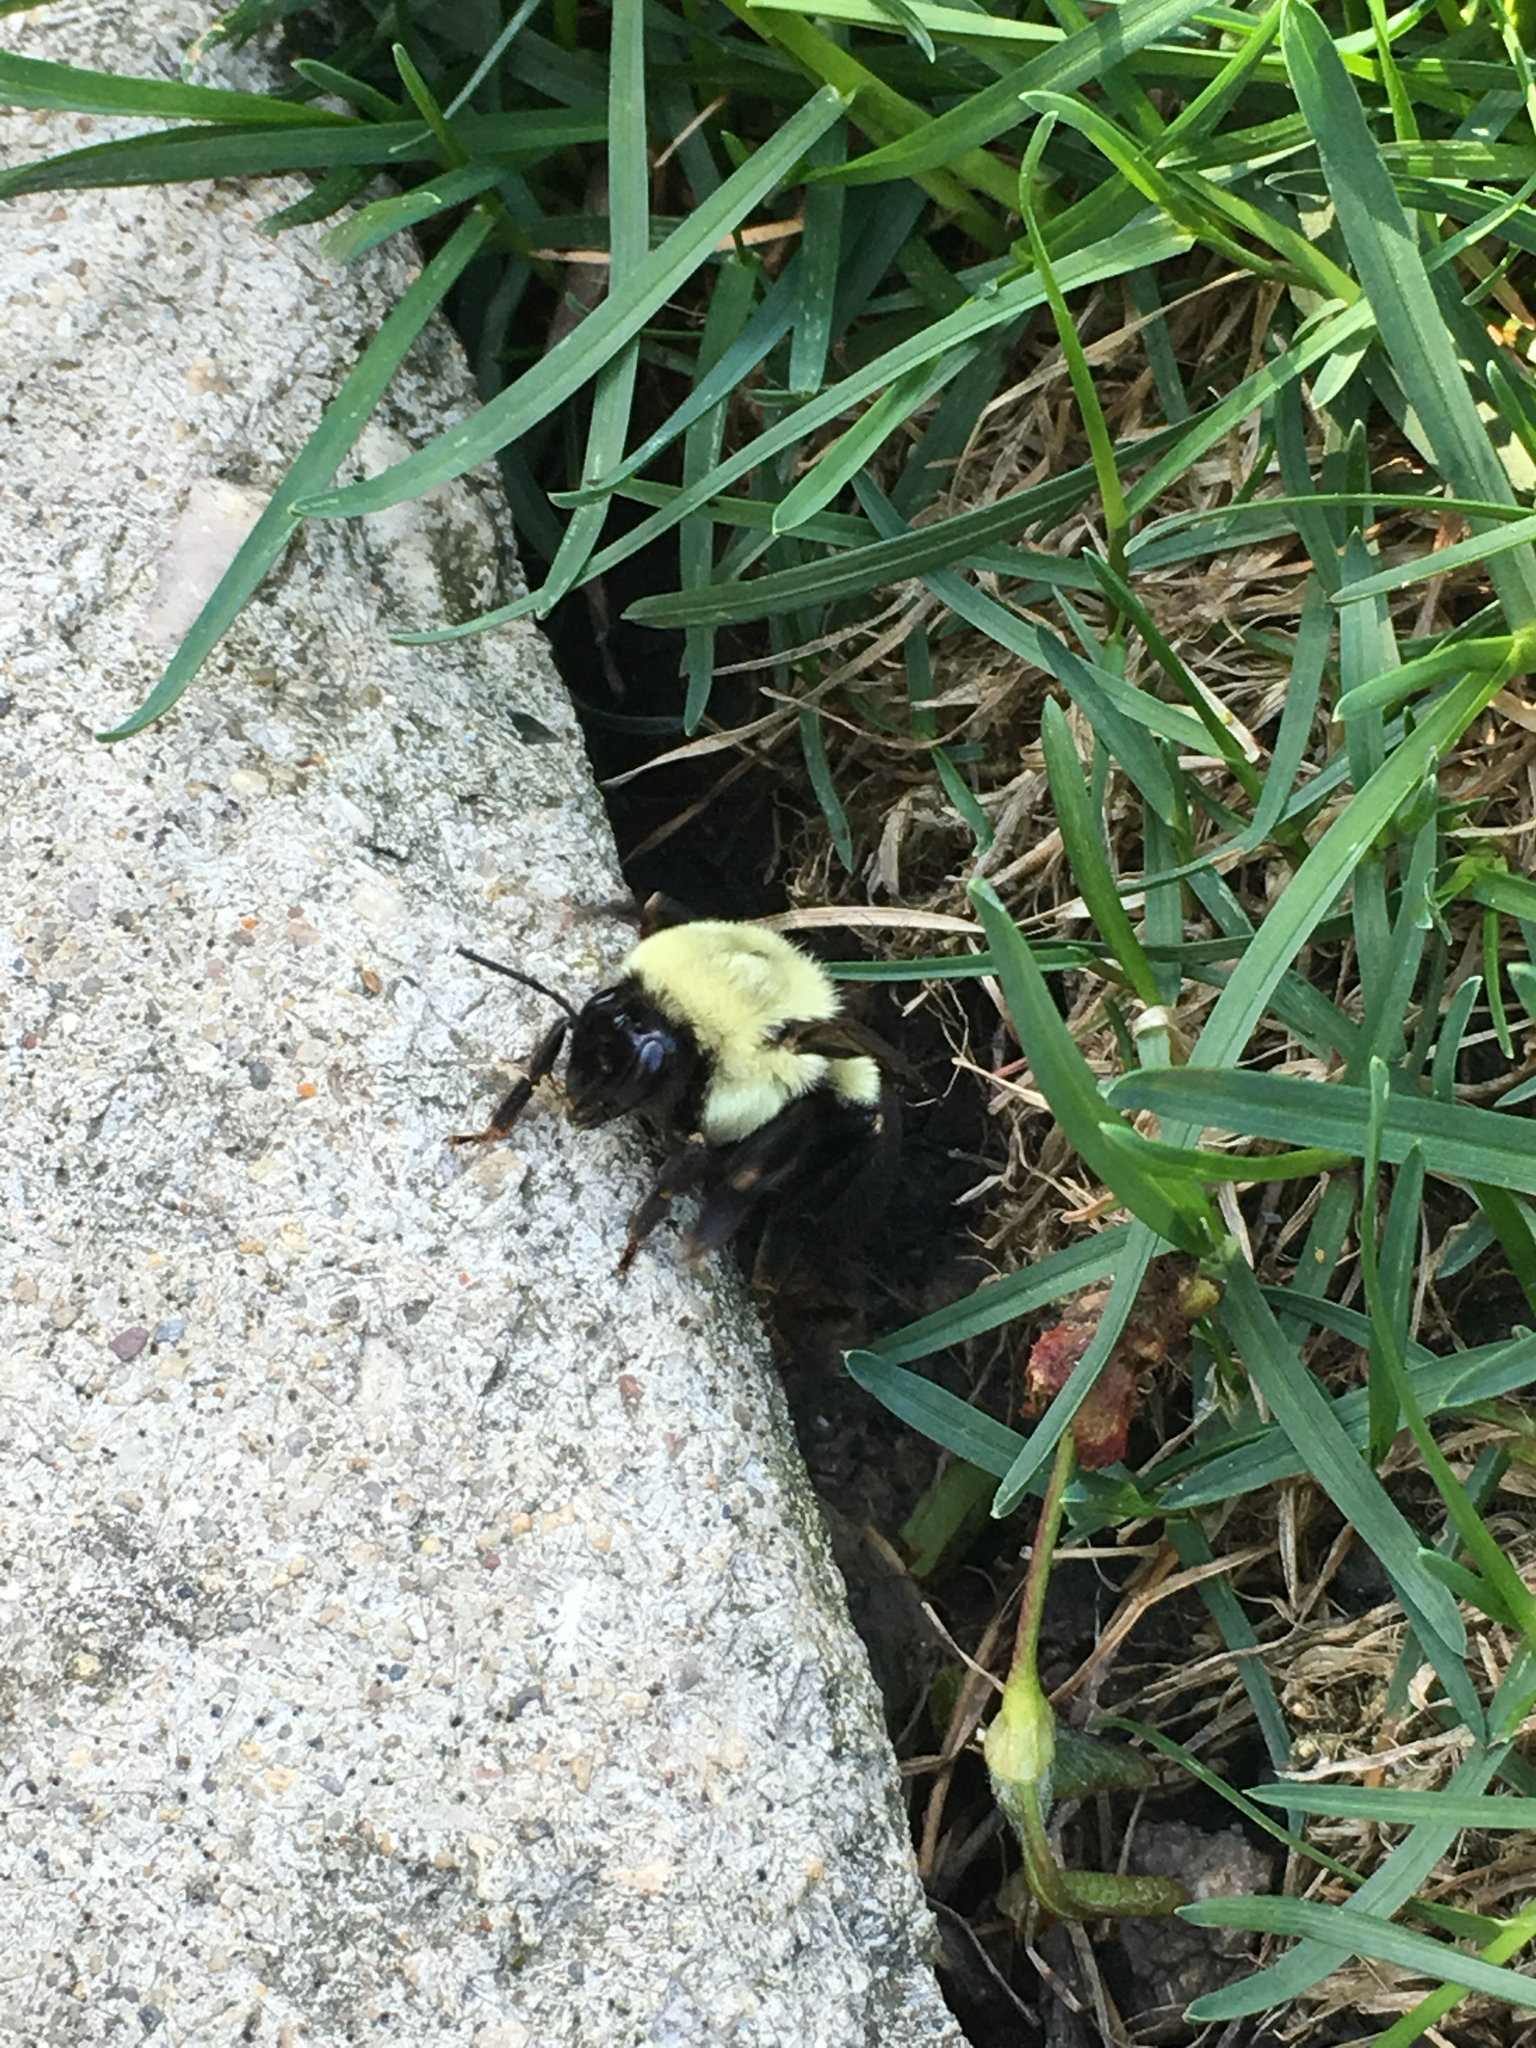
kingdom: Animalia
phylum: Arthropoda
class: Insecta
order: Hymenoptera
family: Apidae
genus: Bombus
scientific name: Bombus impatiens
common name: Common eastern bumble bee
